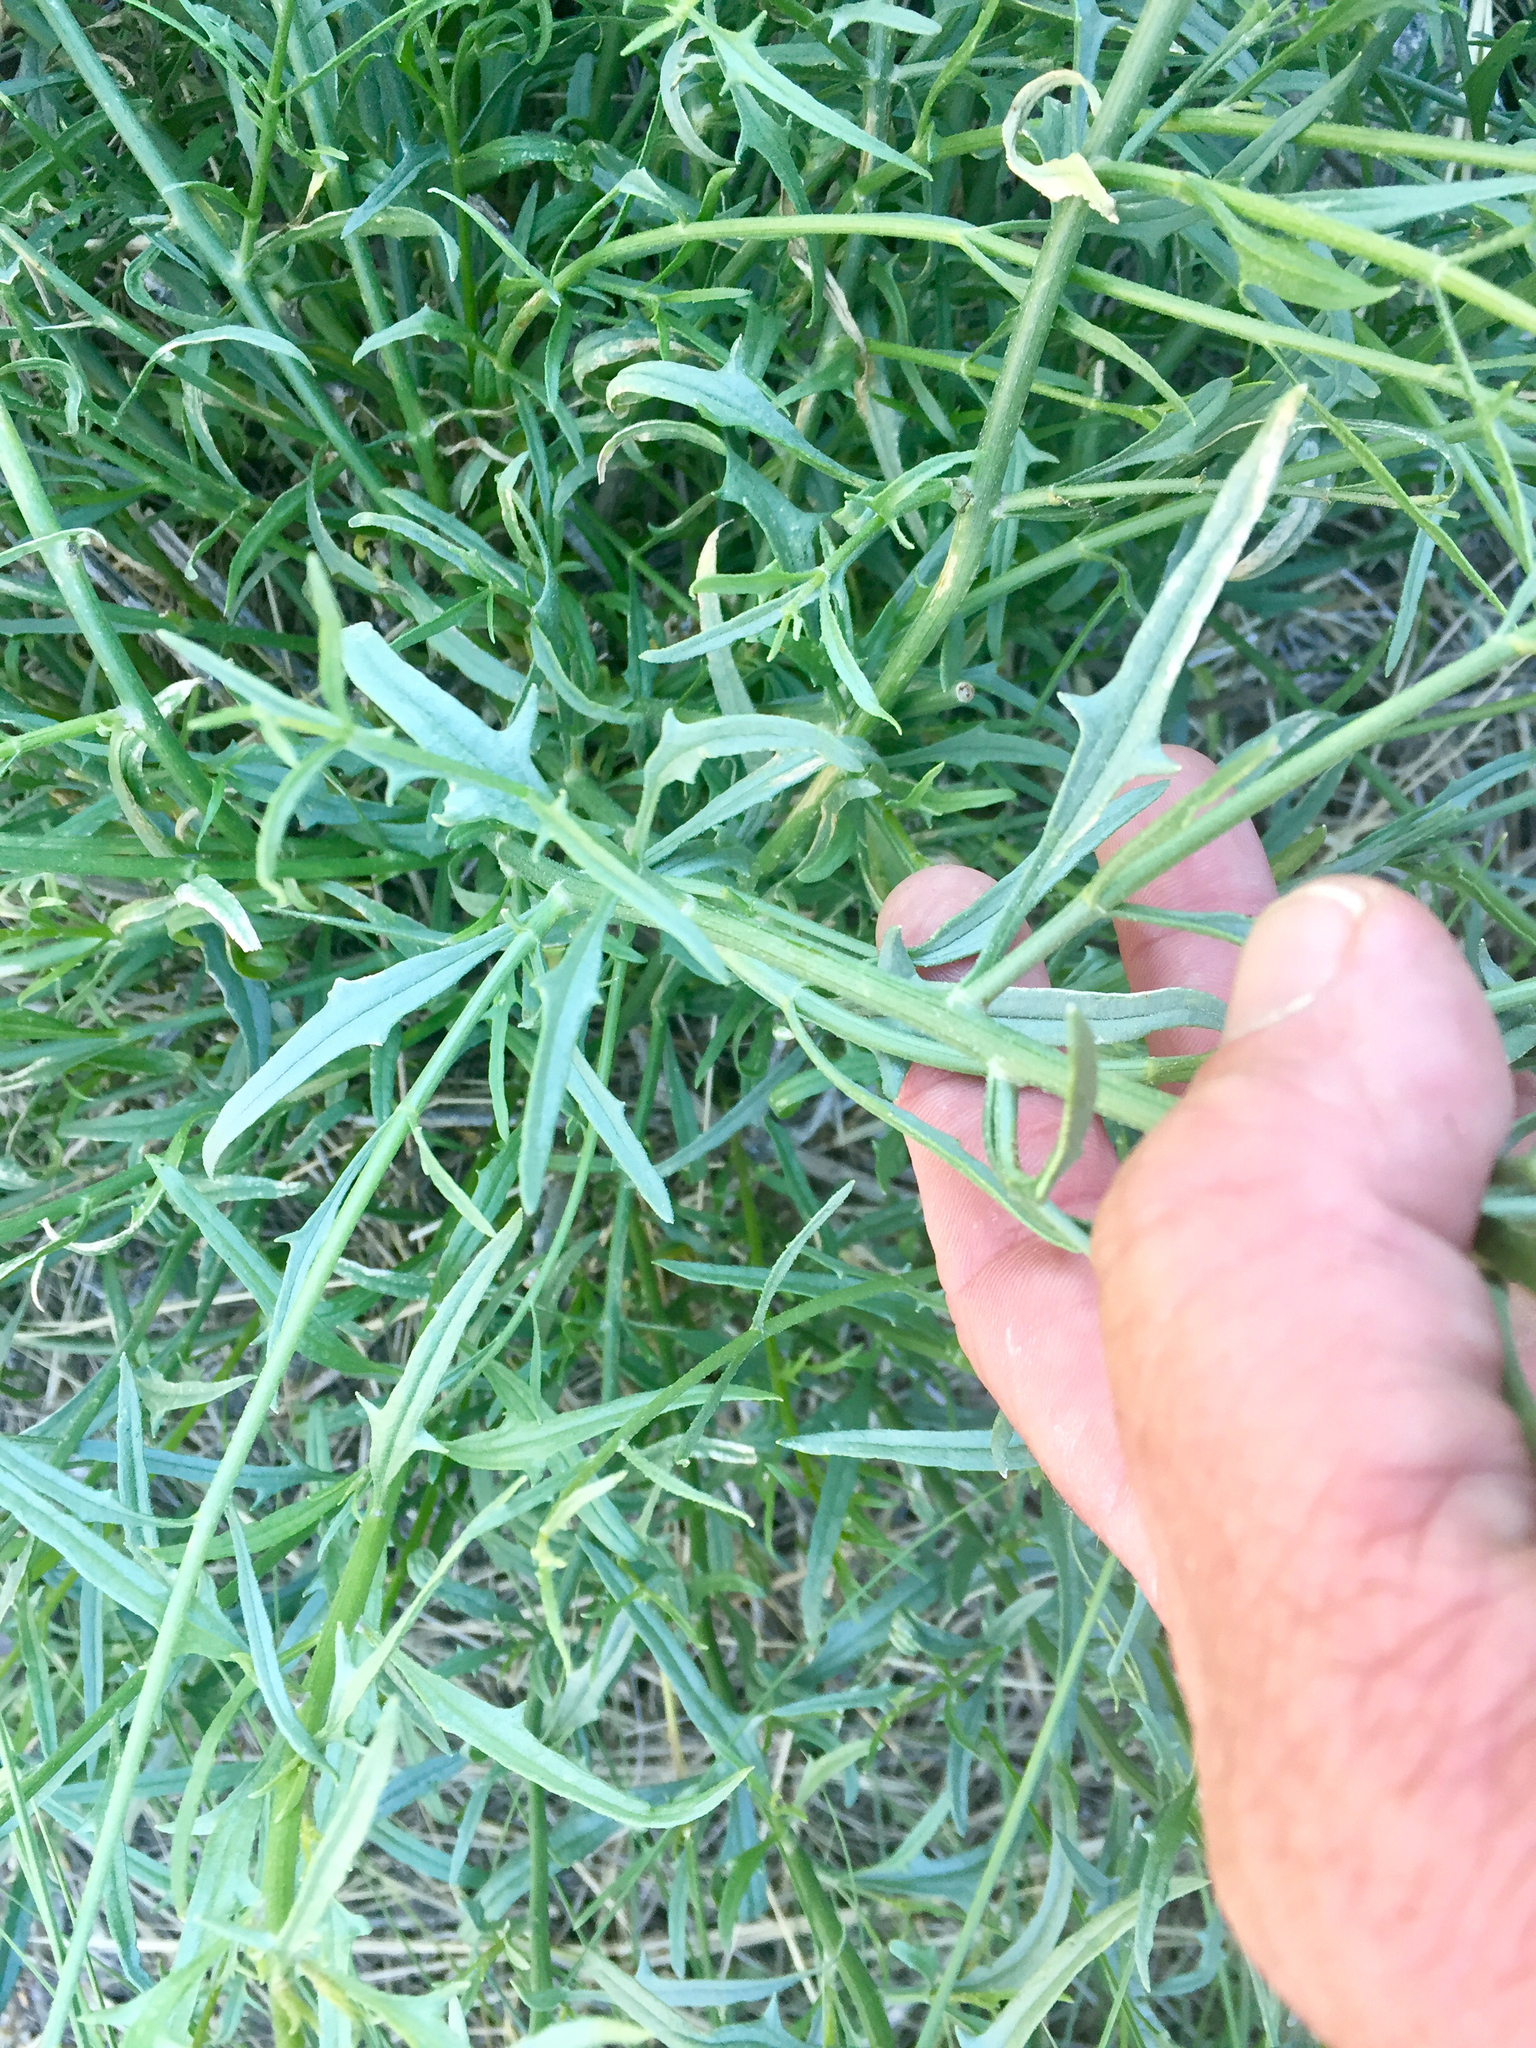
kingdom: Plantae
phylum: Tracheophyta
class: Magnoliopsida
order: Asterales
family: Asteraceae
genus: Bebbia
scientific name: Bebbia juncea
